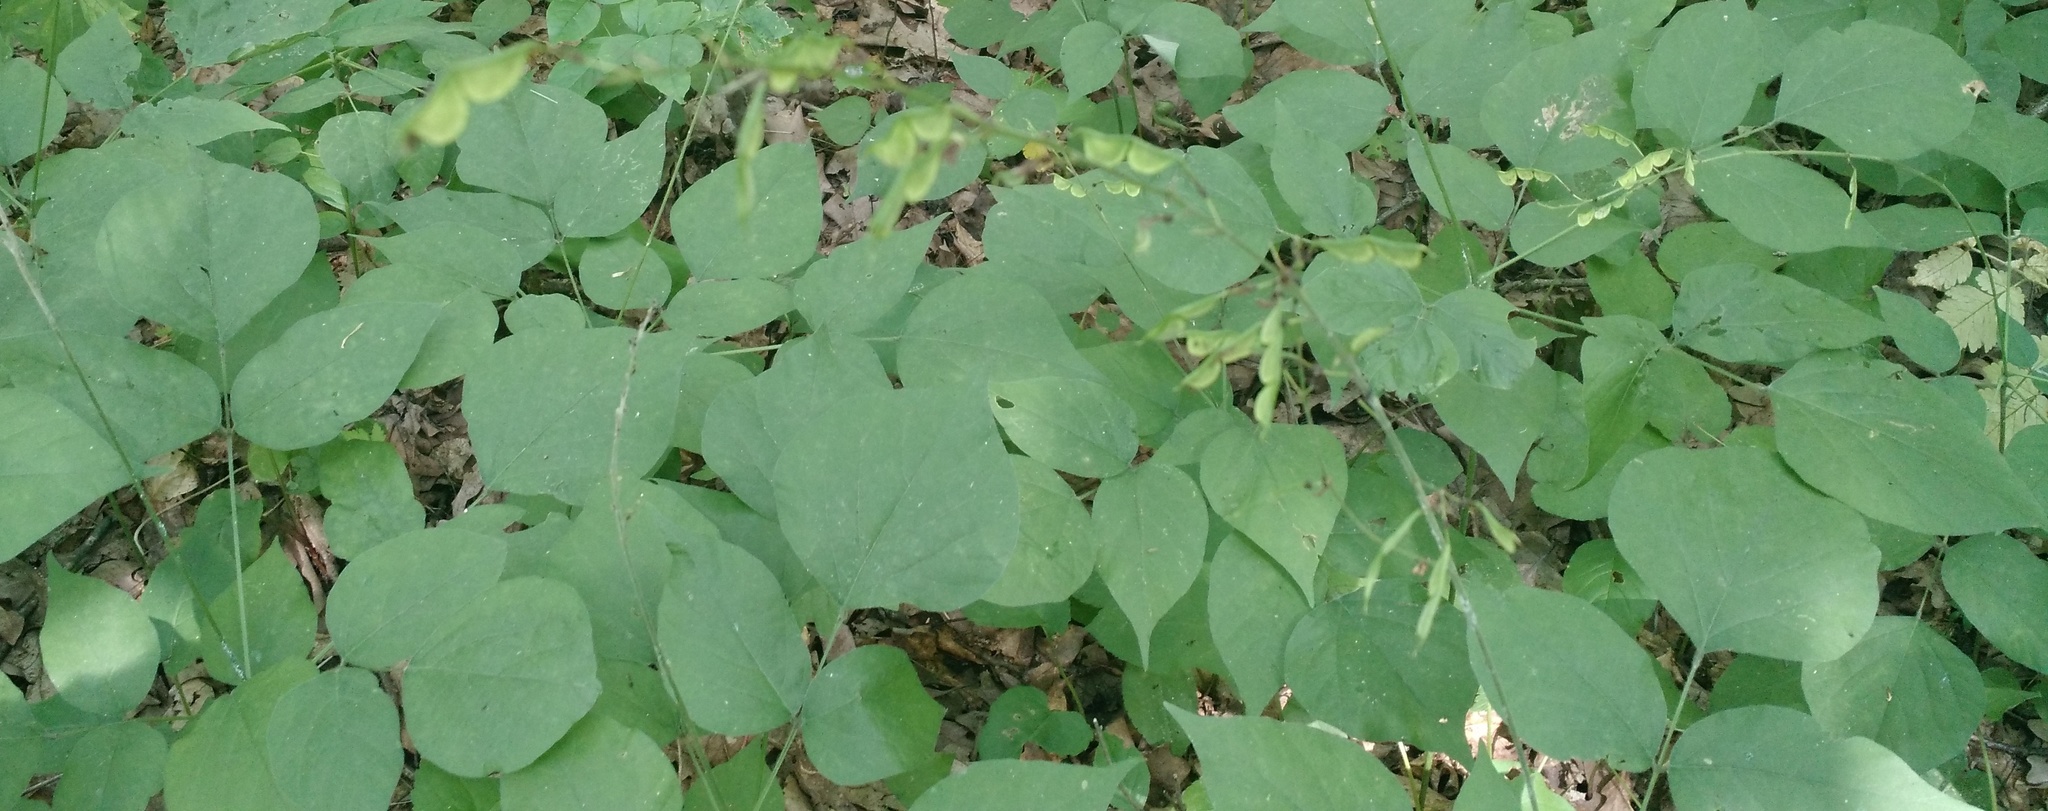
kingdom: Plantae
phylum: Tracheophyta
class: Magnoliopsida
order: Fabales
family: Fabaceae
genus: Hylodesmum
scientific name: Hylodesmum glutinosum
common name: Clustered-leaved tick-trefoil
